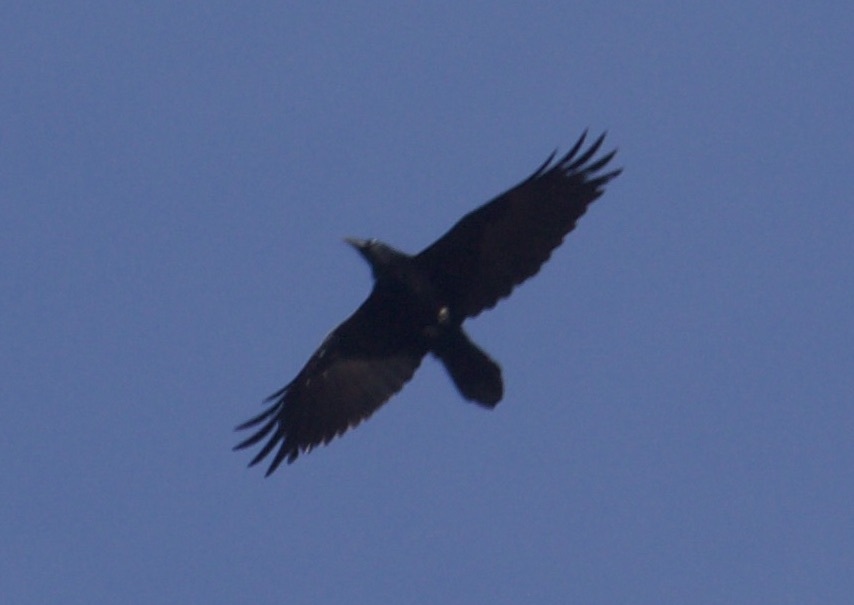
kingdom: Animalia
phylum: Chordata
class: Aves
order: Passeriformes
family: Corvidae
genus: Corvus
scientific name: Corvus corax
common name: Common raven
